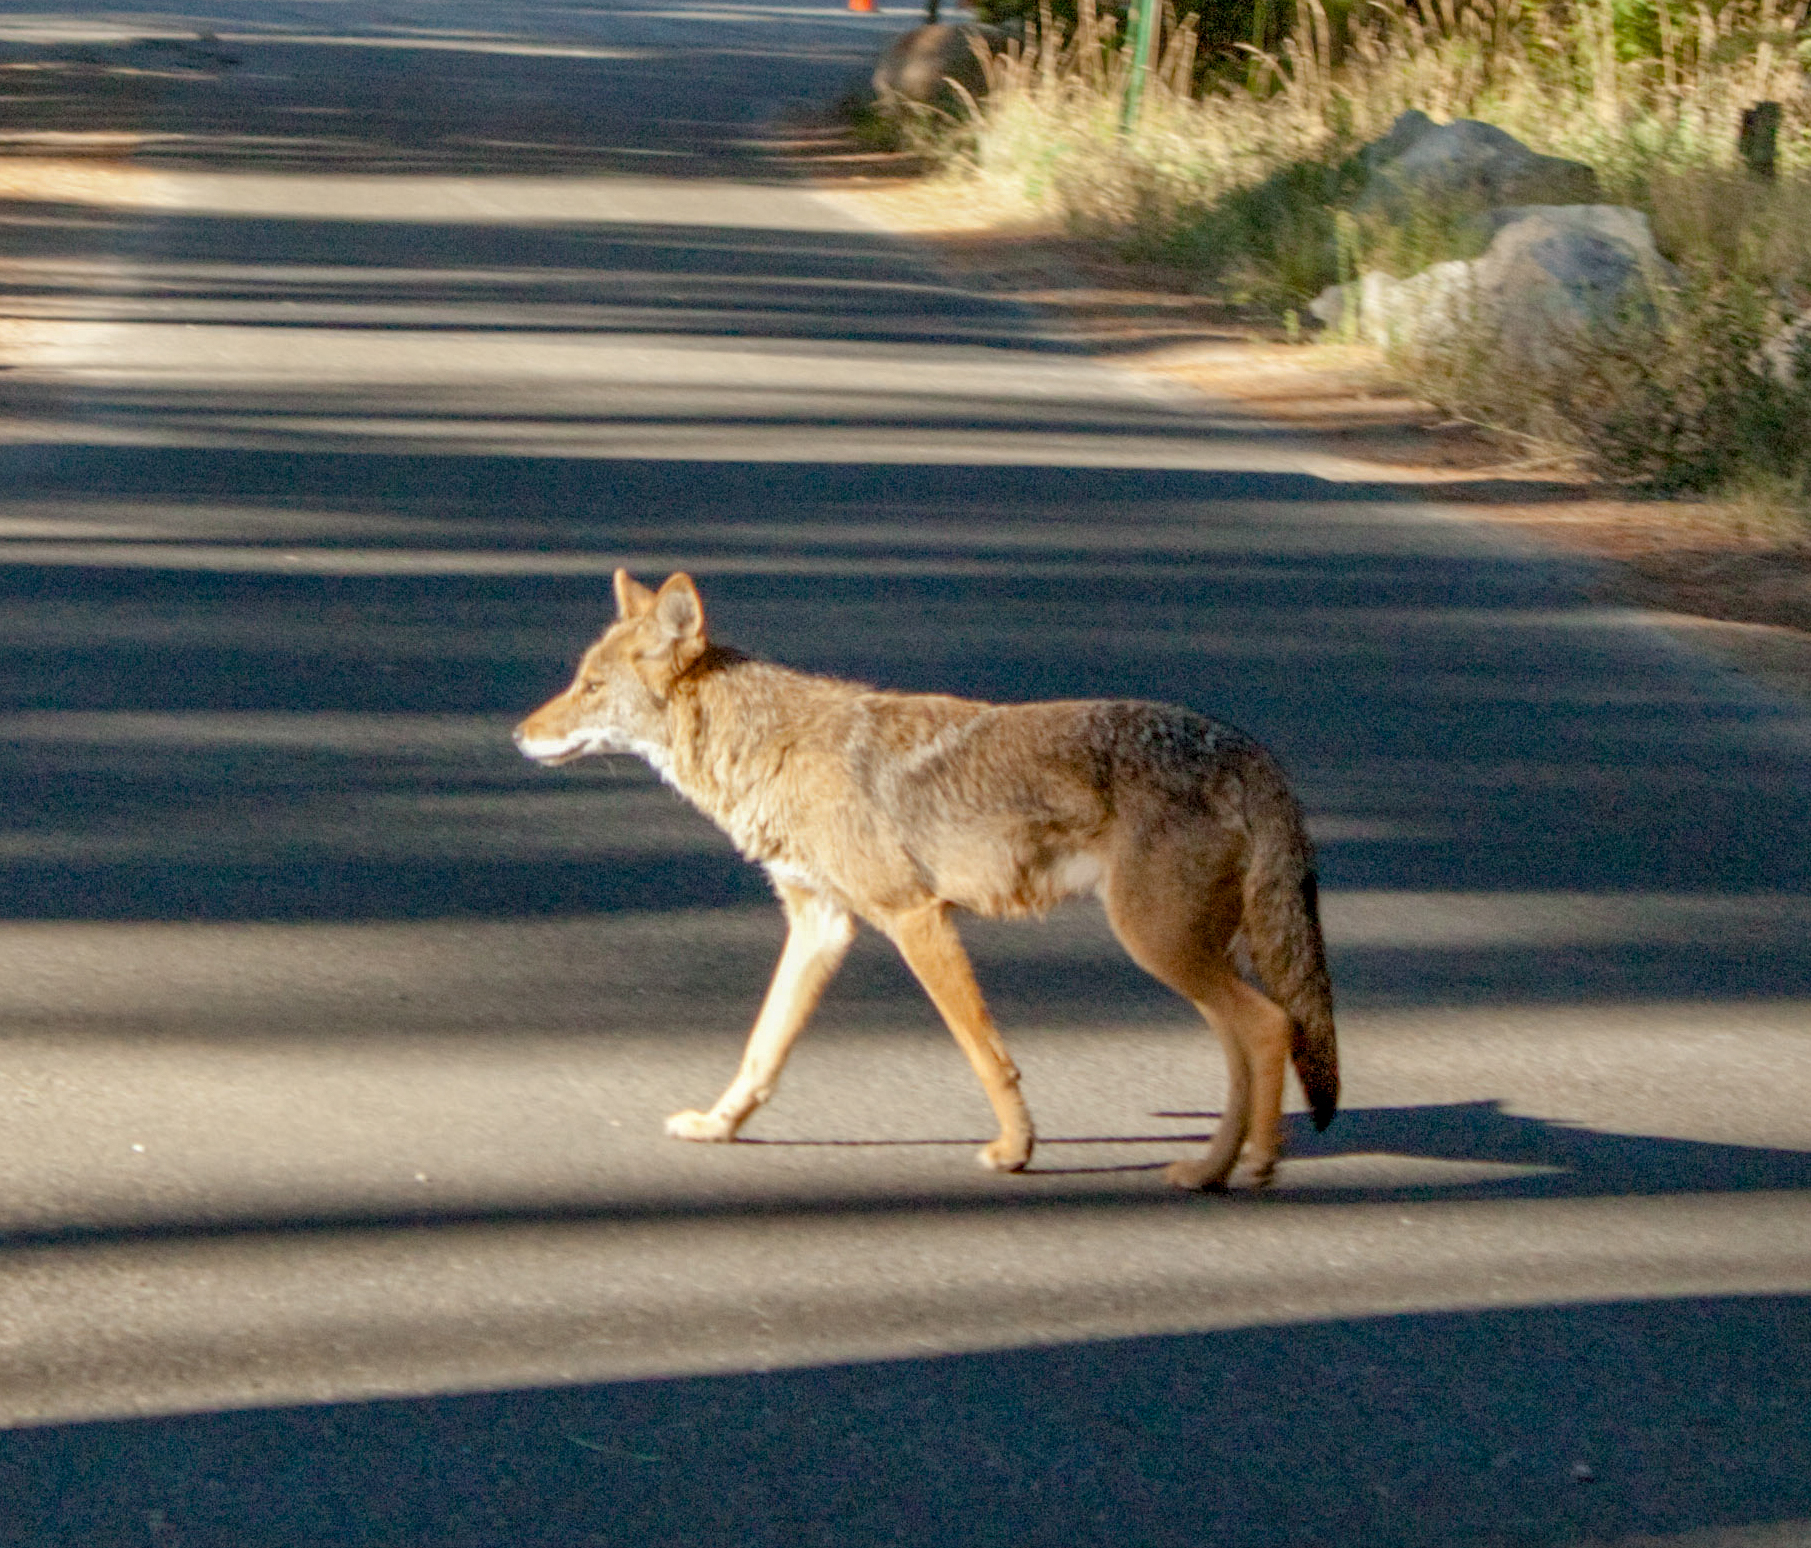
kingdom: Animalia
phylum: Chordata
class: Mammalia
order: Carnivora
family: Canidae
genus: Canis
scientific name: Canis latrans
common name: Coyote
